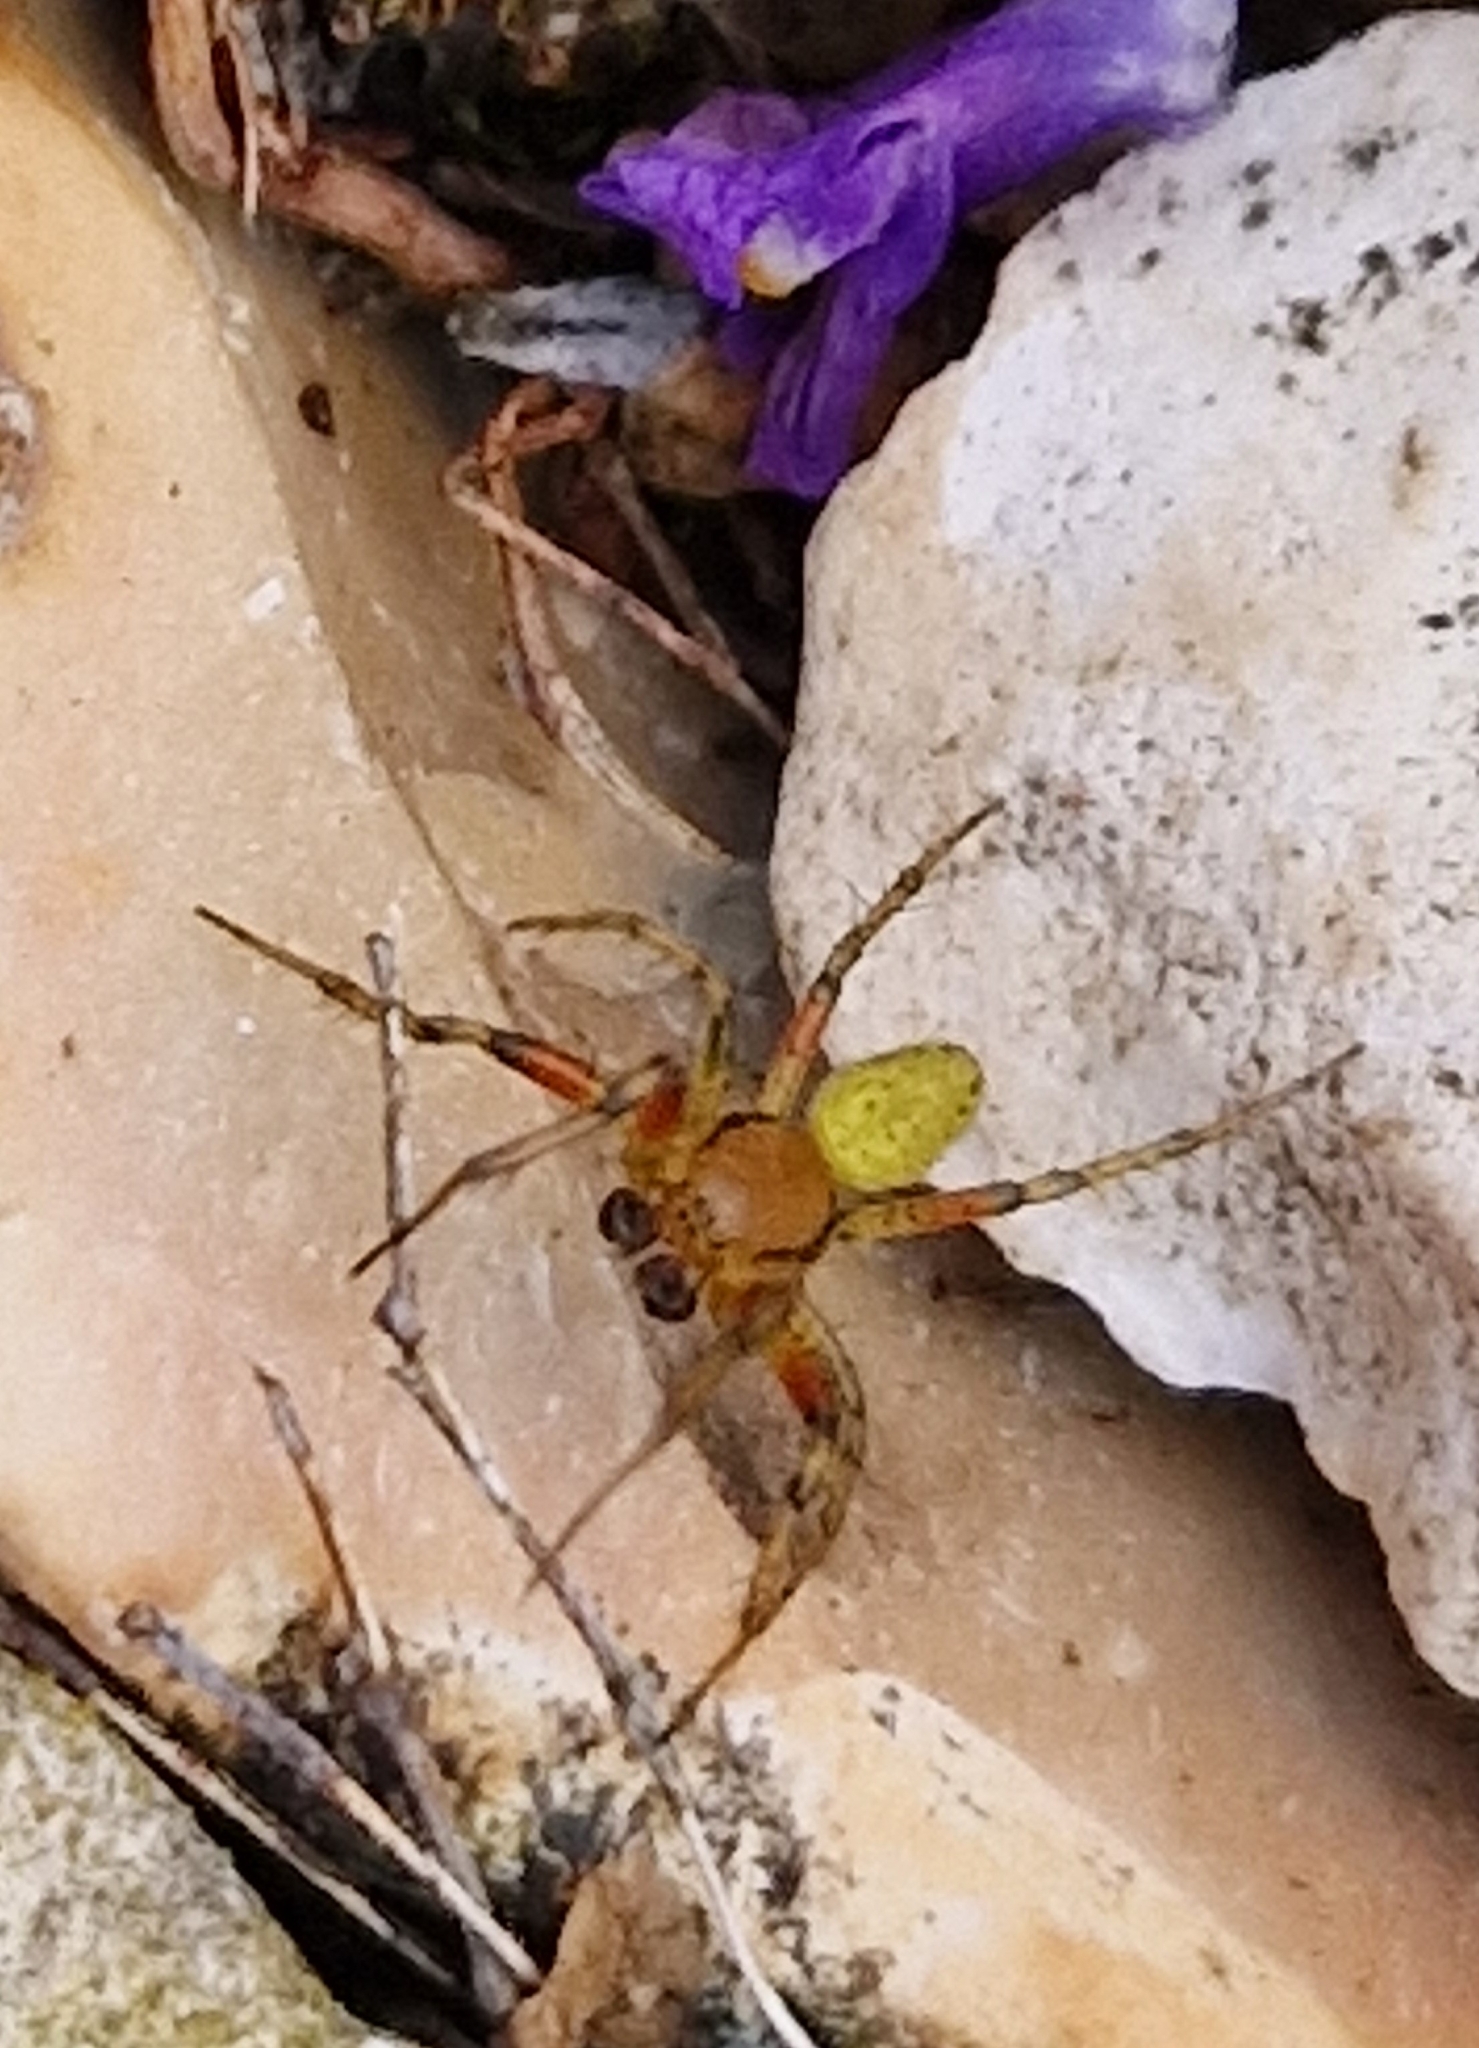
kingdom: Animalia
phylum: Arthropoda
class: Arachnida
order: Araneae
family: Araneidae
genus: Araniella
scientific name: Araniella
